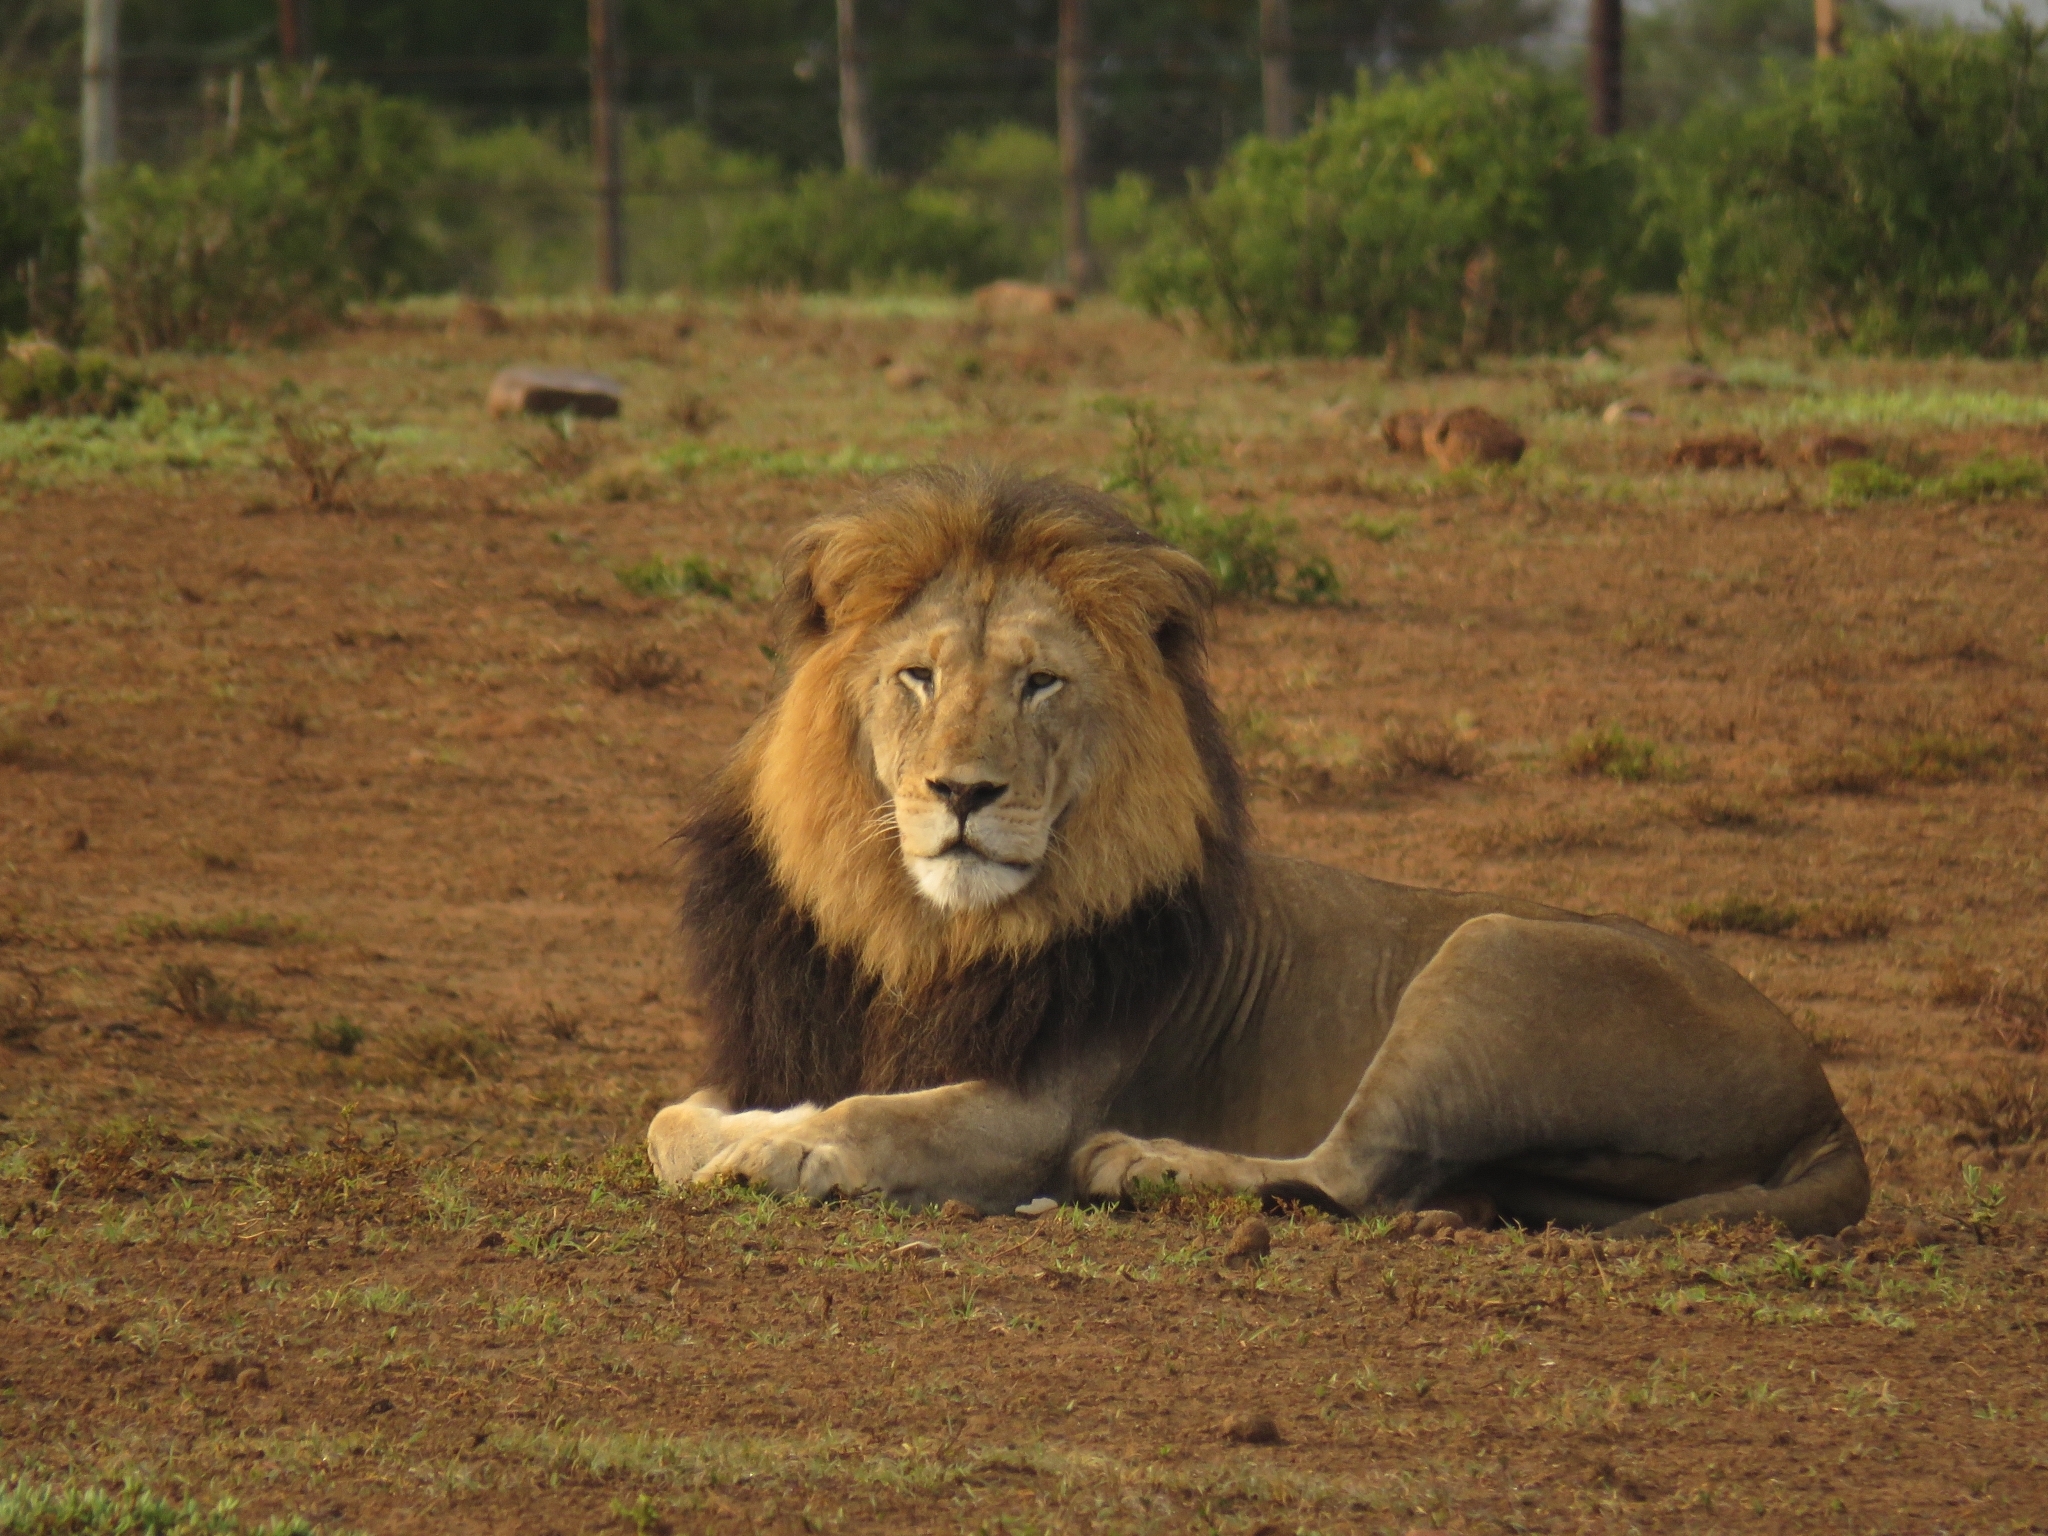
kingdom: Animalia
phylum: Chordata
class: Mammalia
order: Carnivora
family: Felidae
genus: Panthera
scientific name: Panthera leo
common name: Lion
